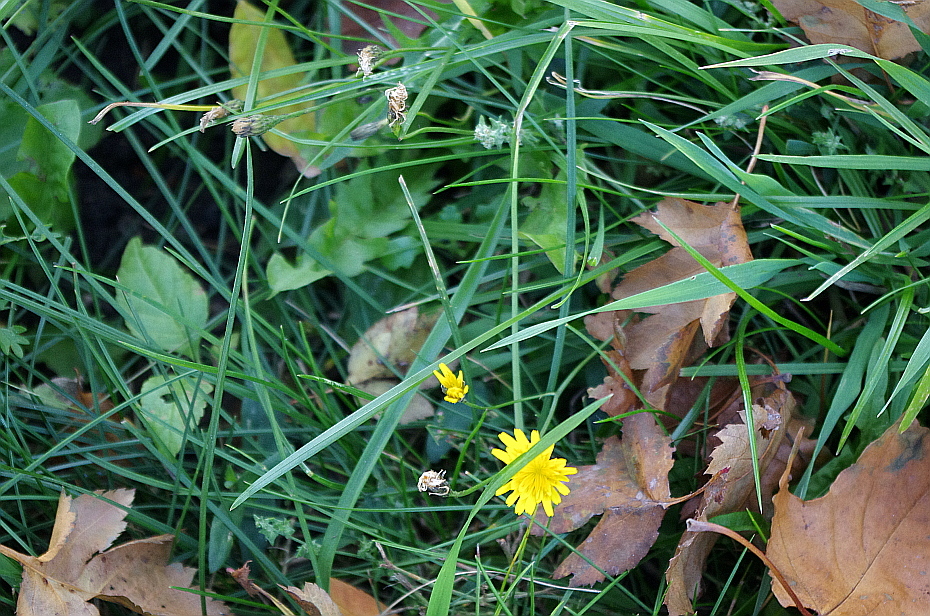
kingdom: Plantae
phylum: Tracheophyta
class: Magnoliopsida
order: Asterales
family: Asteraceae
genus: Scorzoneroides
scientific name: Scorzoneroides autumnalis
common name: Autumn hawkbit
